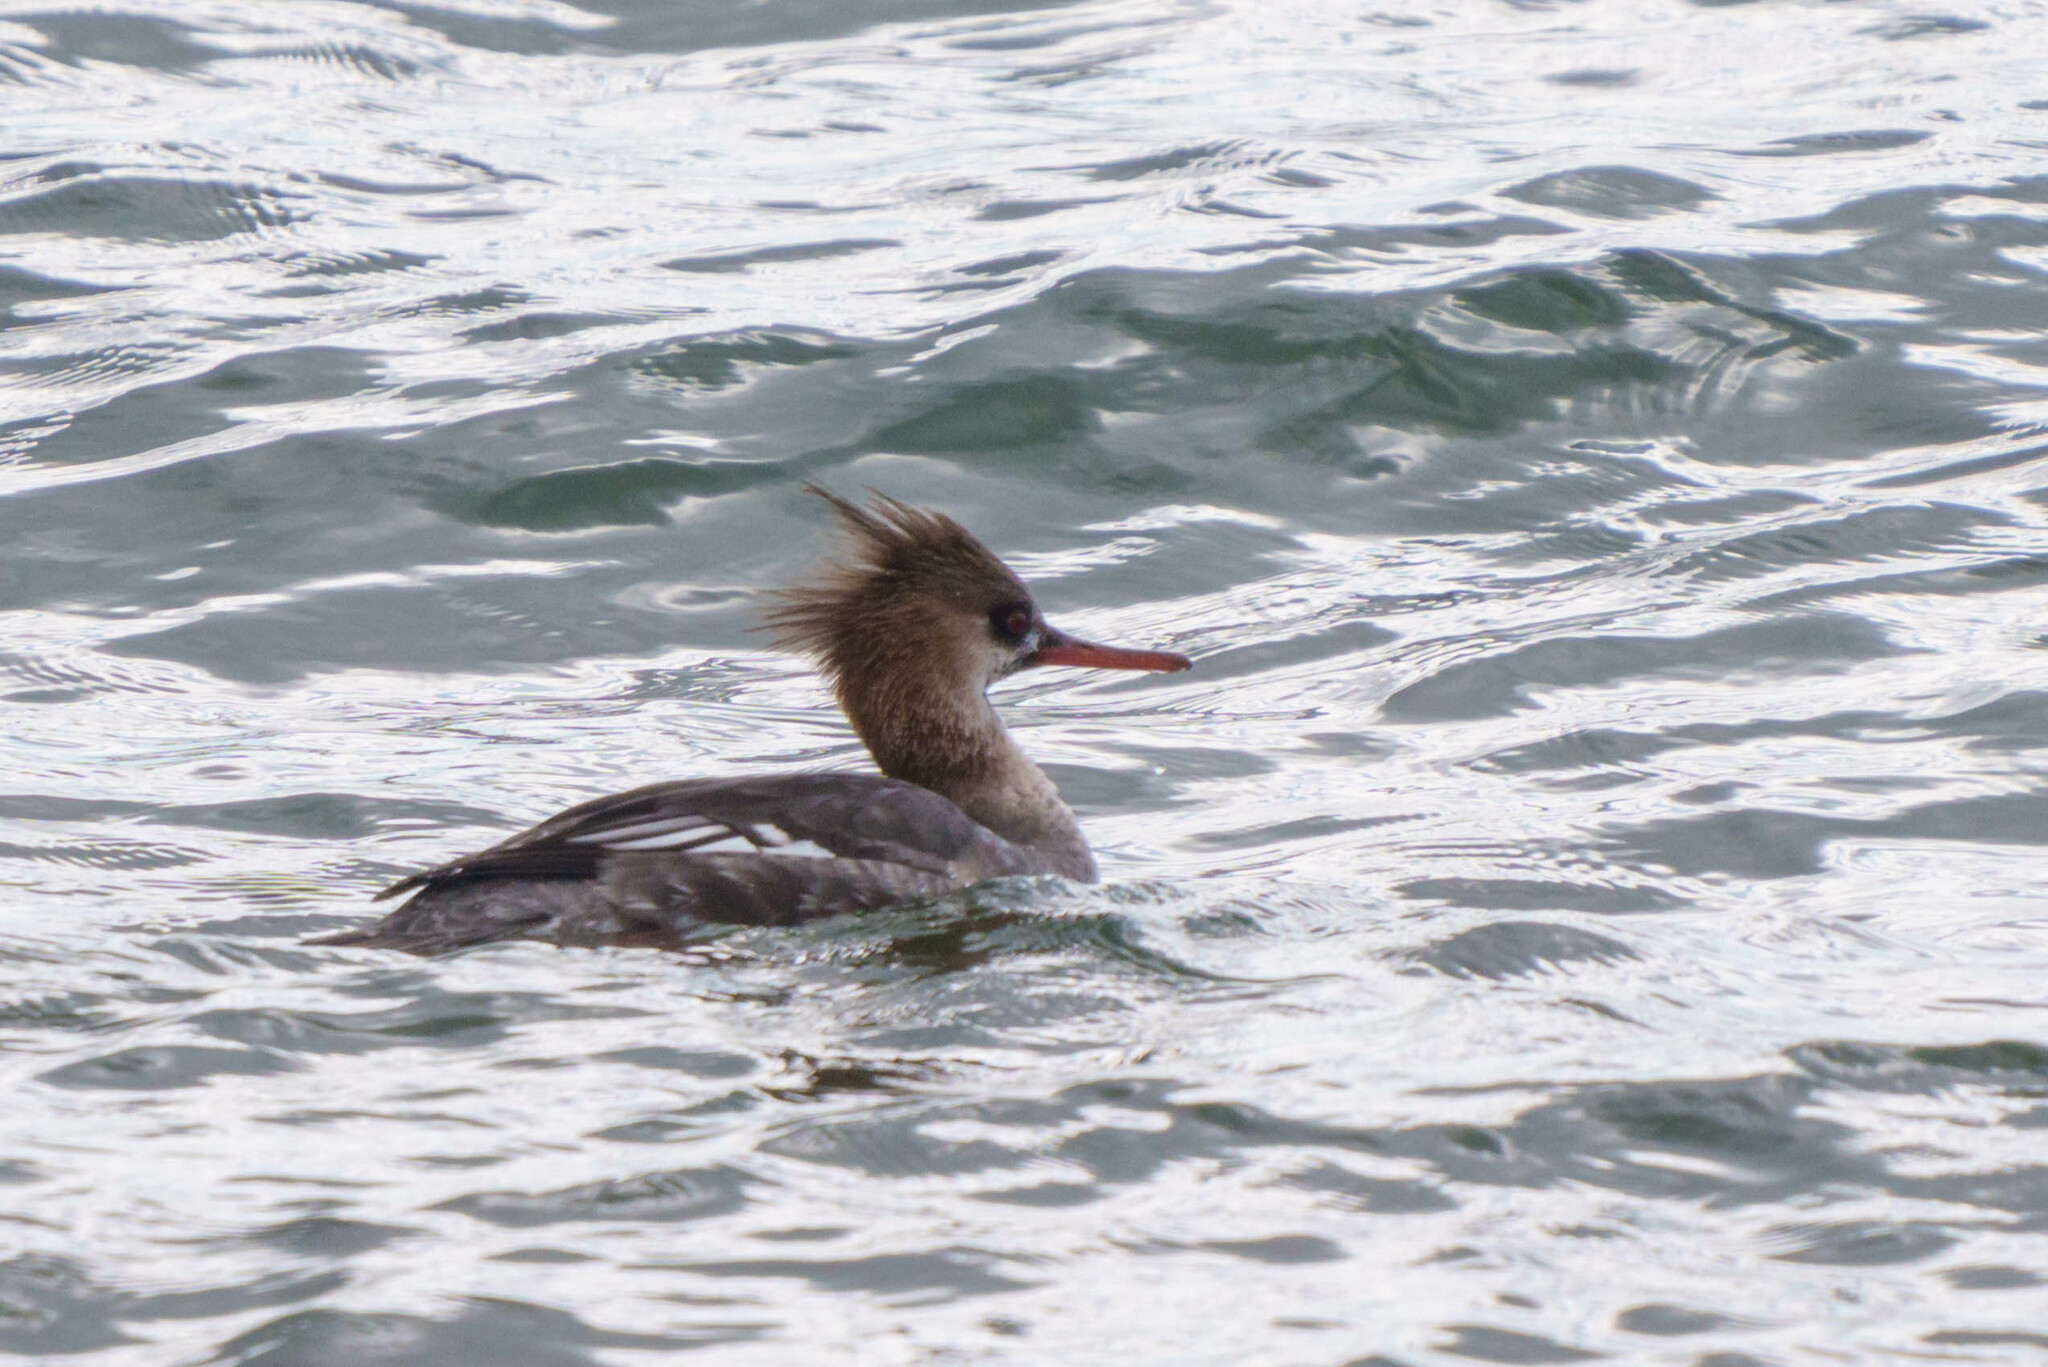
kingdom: Animalia
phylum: Chordata
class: Aves
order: Anseriformes
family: Anatidae
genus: Mergus
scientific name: Mergus serrator
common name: Red-breasted merganser
